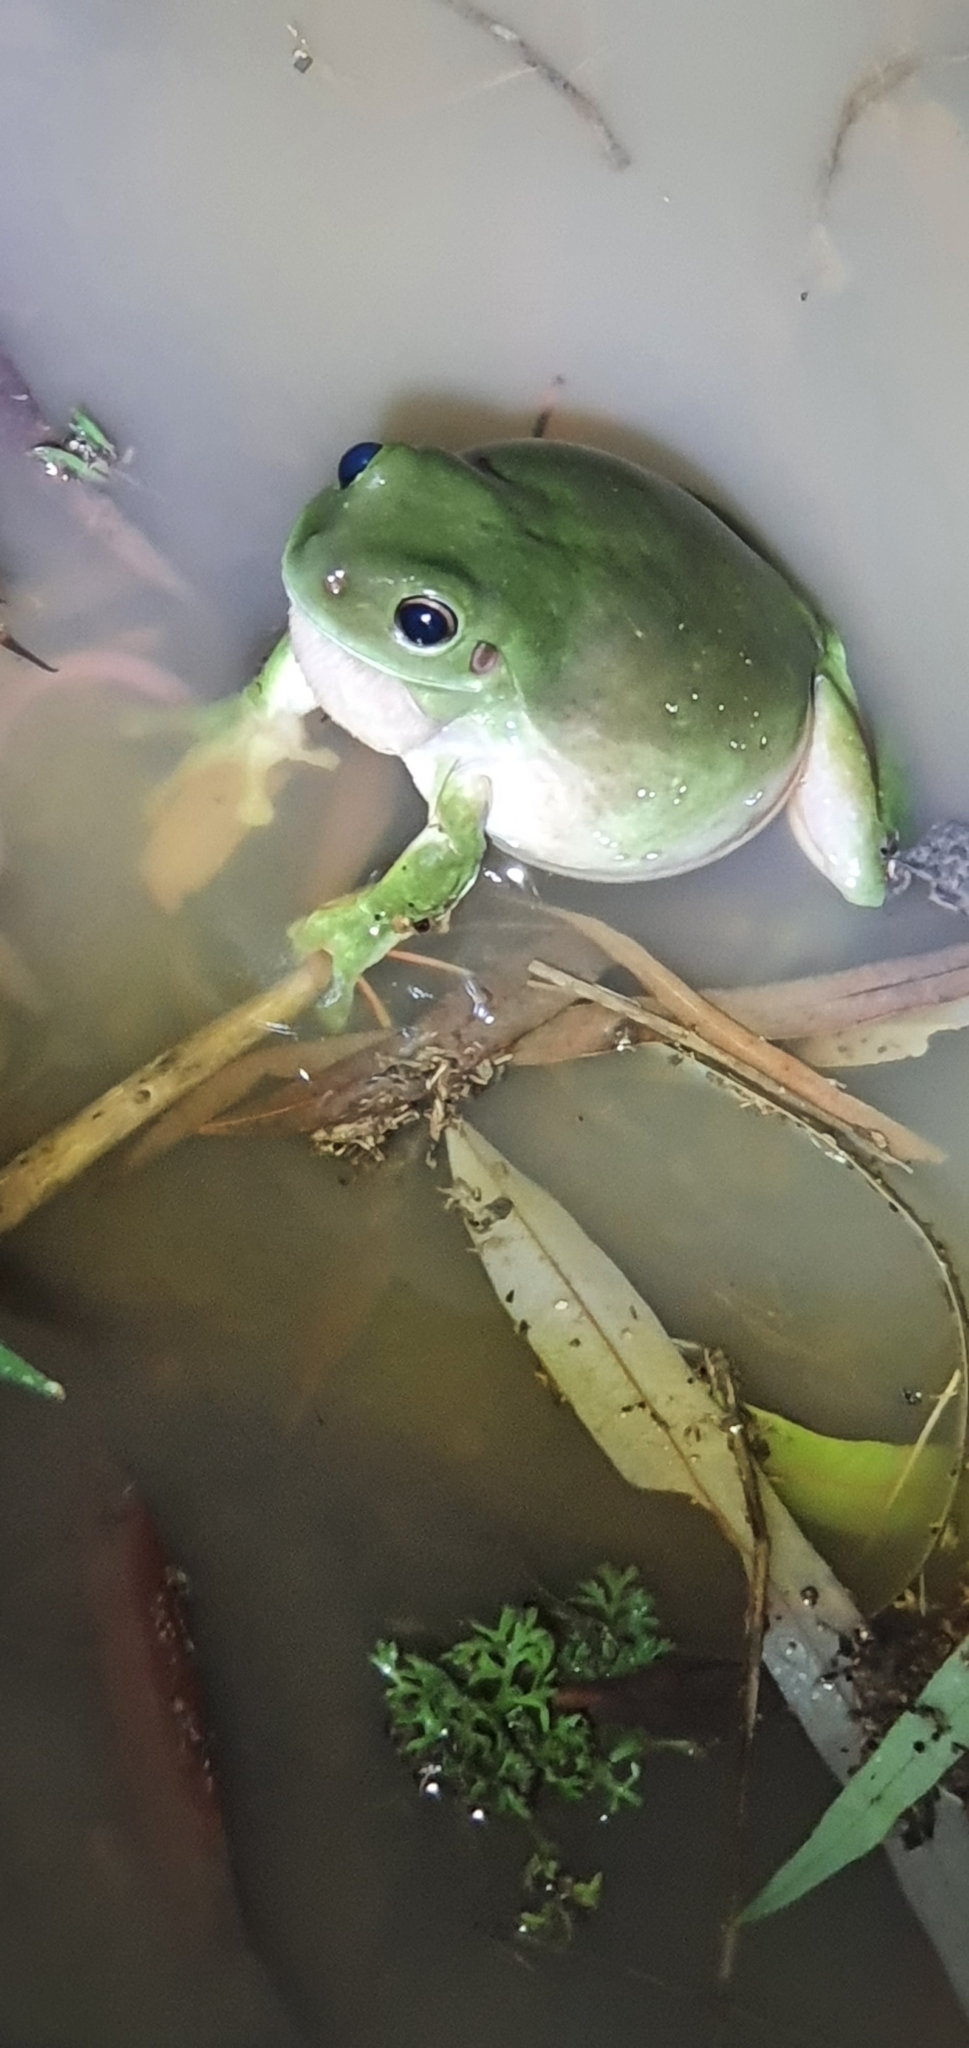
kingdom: Animalia
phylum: Chordata
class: Amphibia
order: Anura
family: Pelodryadidae
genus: Ranoidea
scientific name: Ranoidea caerulea
